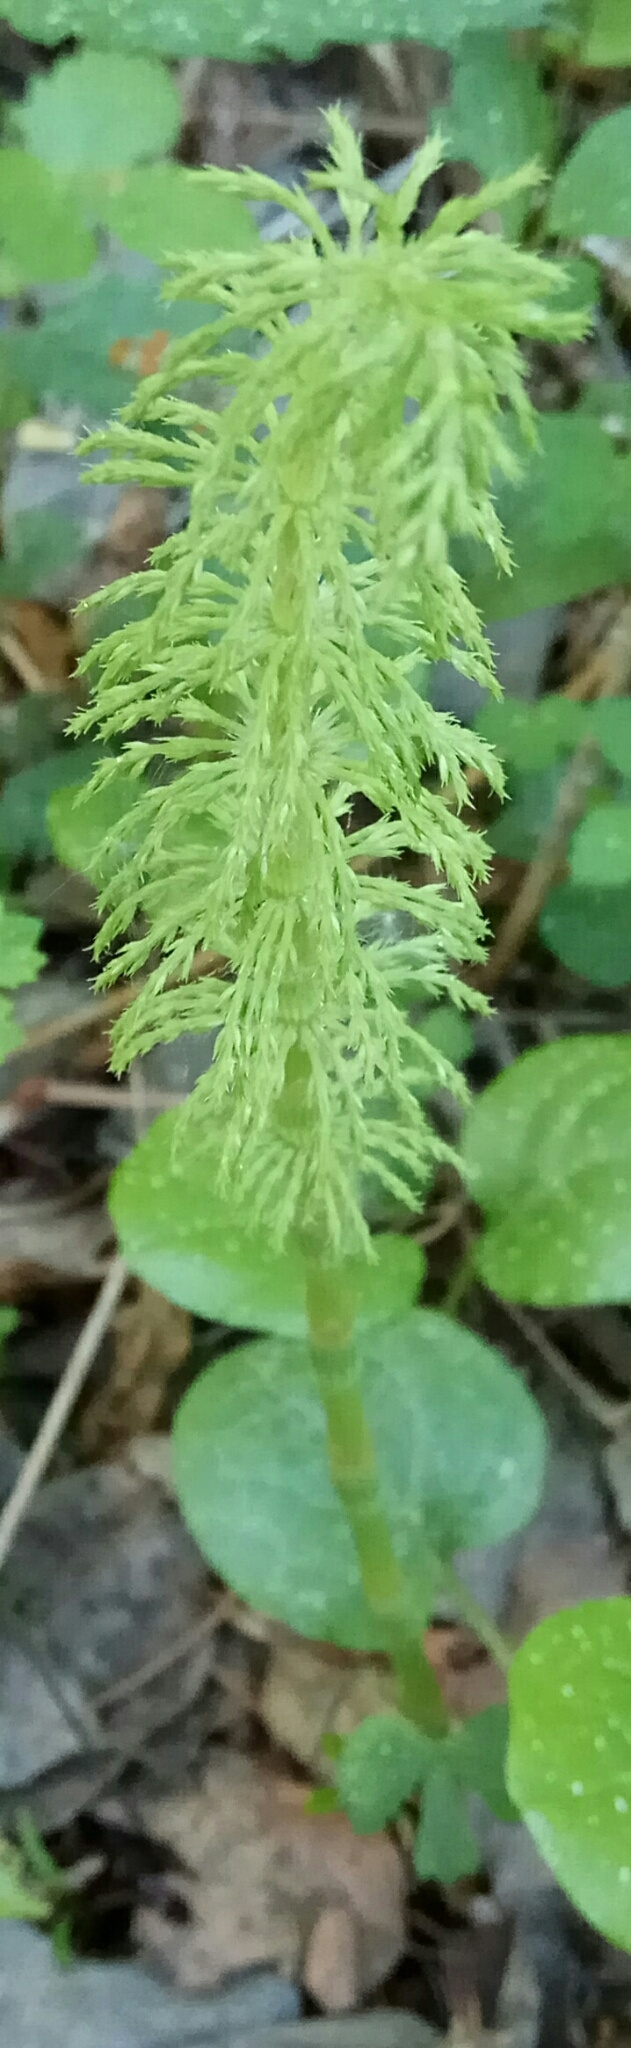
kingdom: Plantae
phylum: Tracheophyta
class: Polypodiopsida
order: Equisetales
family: Equisetaceae
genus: Equisetum
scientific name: Equisetum sylvaticum
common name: Wood horsetail
